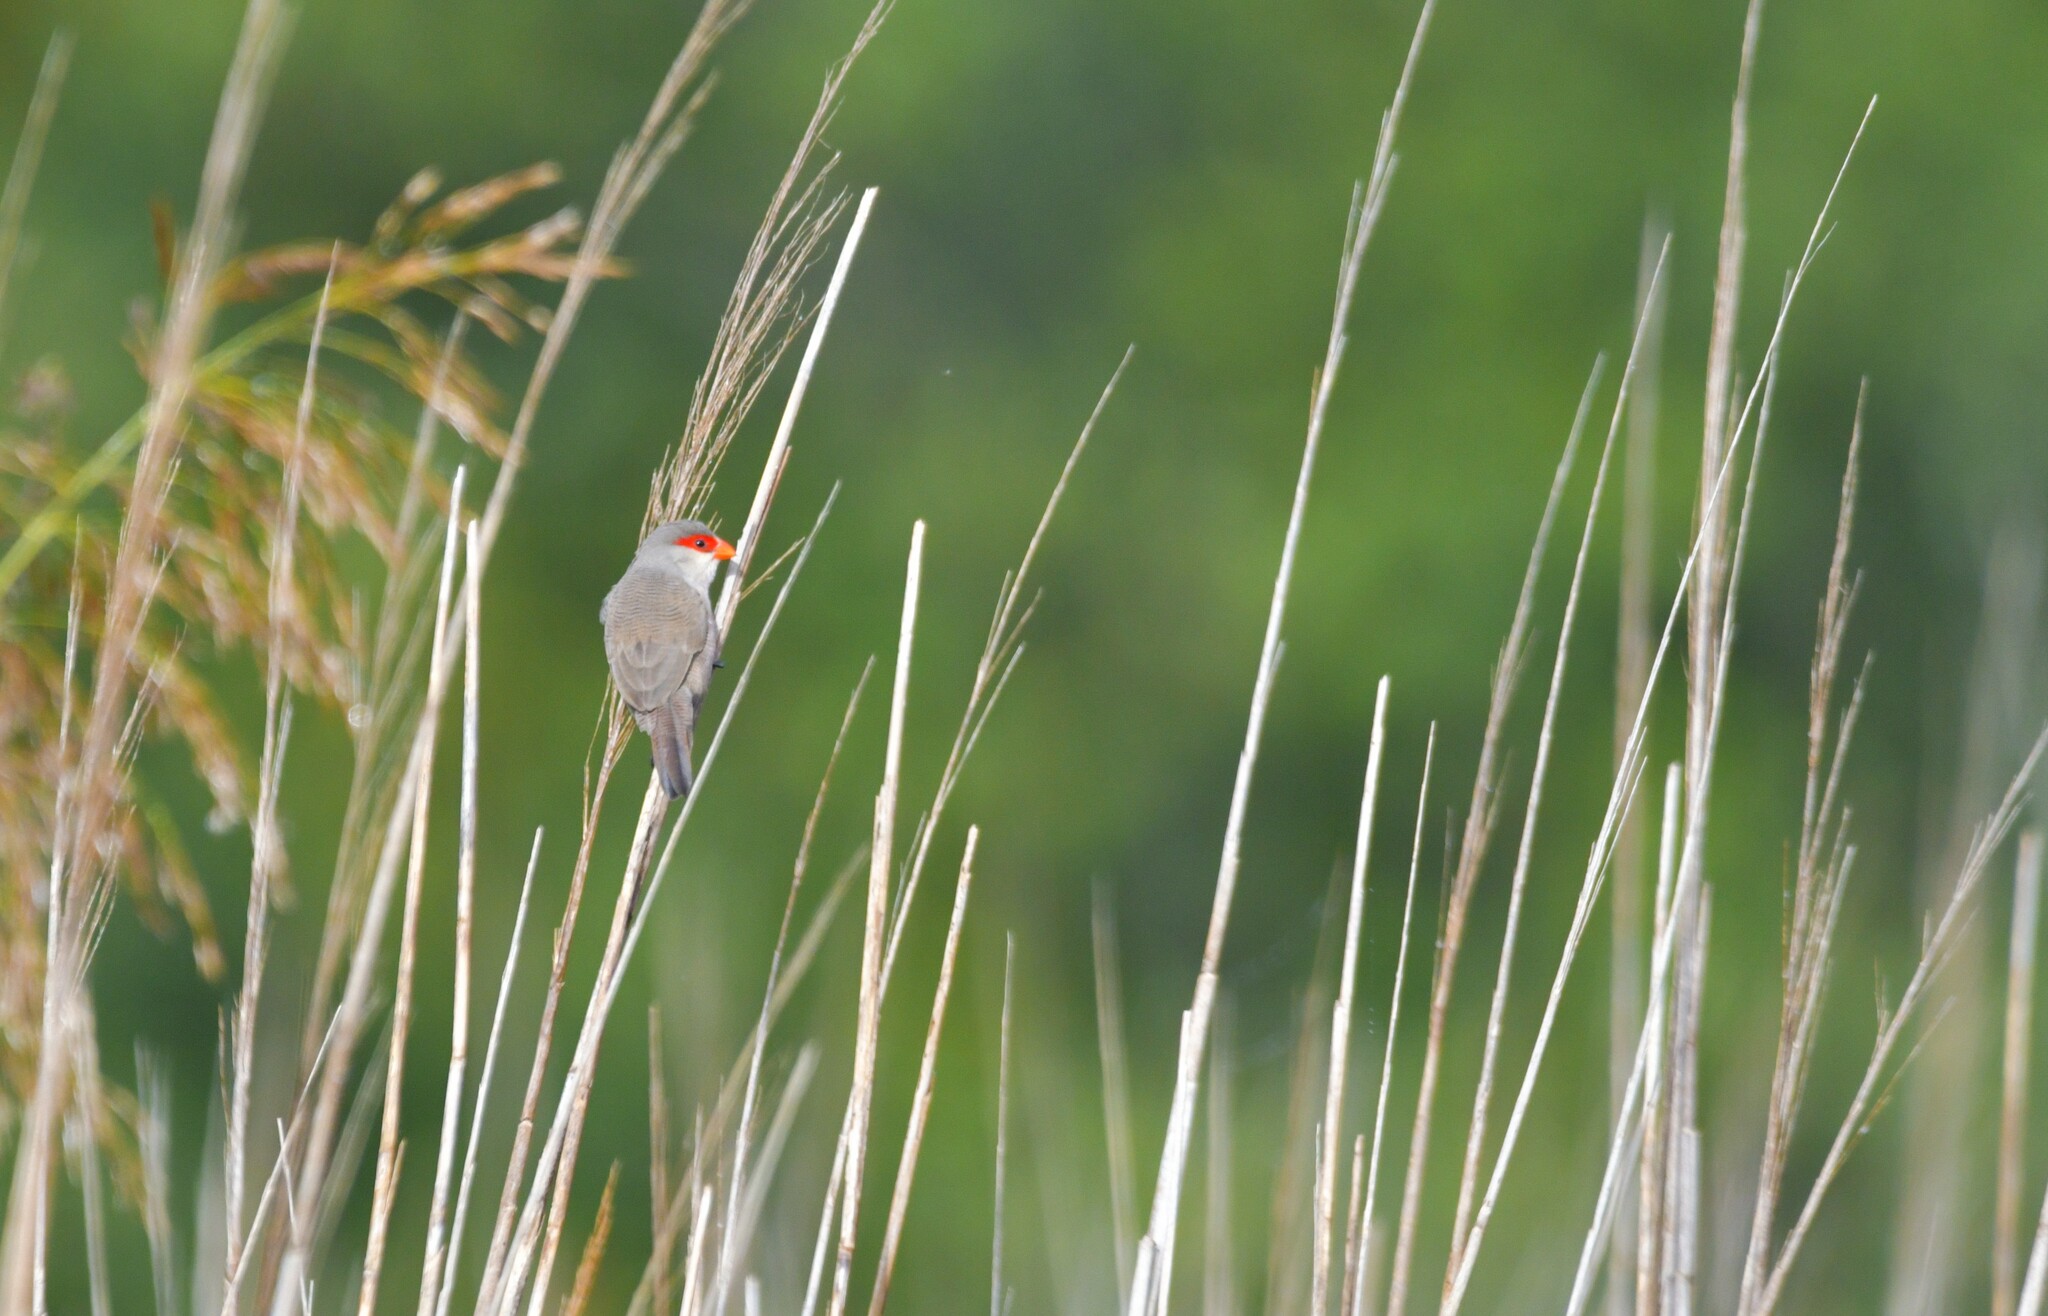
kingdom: Animalia
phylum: Chordata
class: Aves
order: Passeriformes
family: Estrildidae
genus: Estrilda
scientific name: Estrilda astrild
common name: Common waxbill
